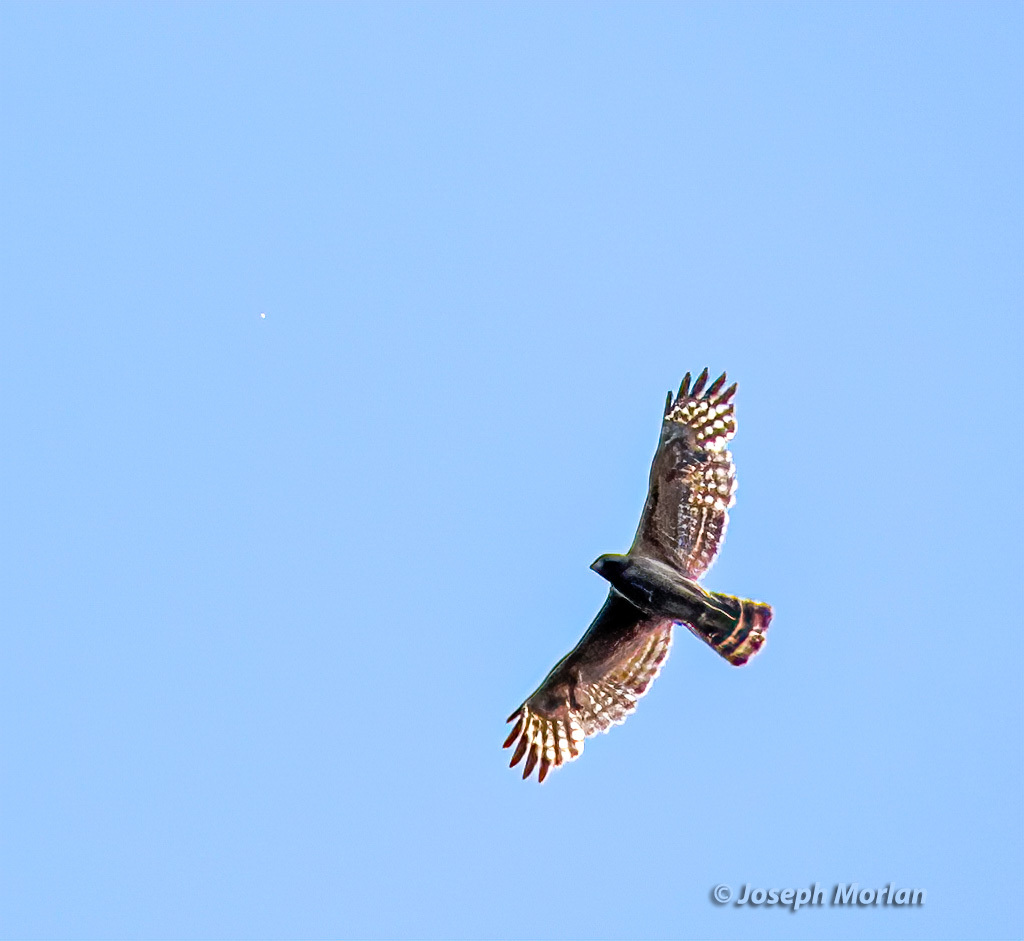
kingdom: Animalia
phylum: Chordata
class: Aves
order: Accipitriformes
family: Accipitridae
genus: Buteo
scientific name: Buteo lineatus
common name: Red-shouldered hawk
